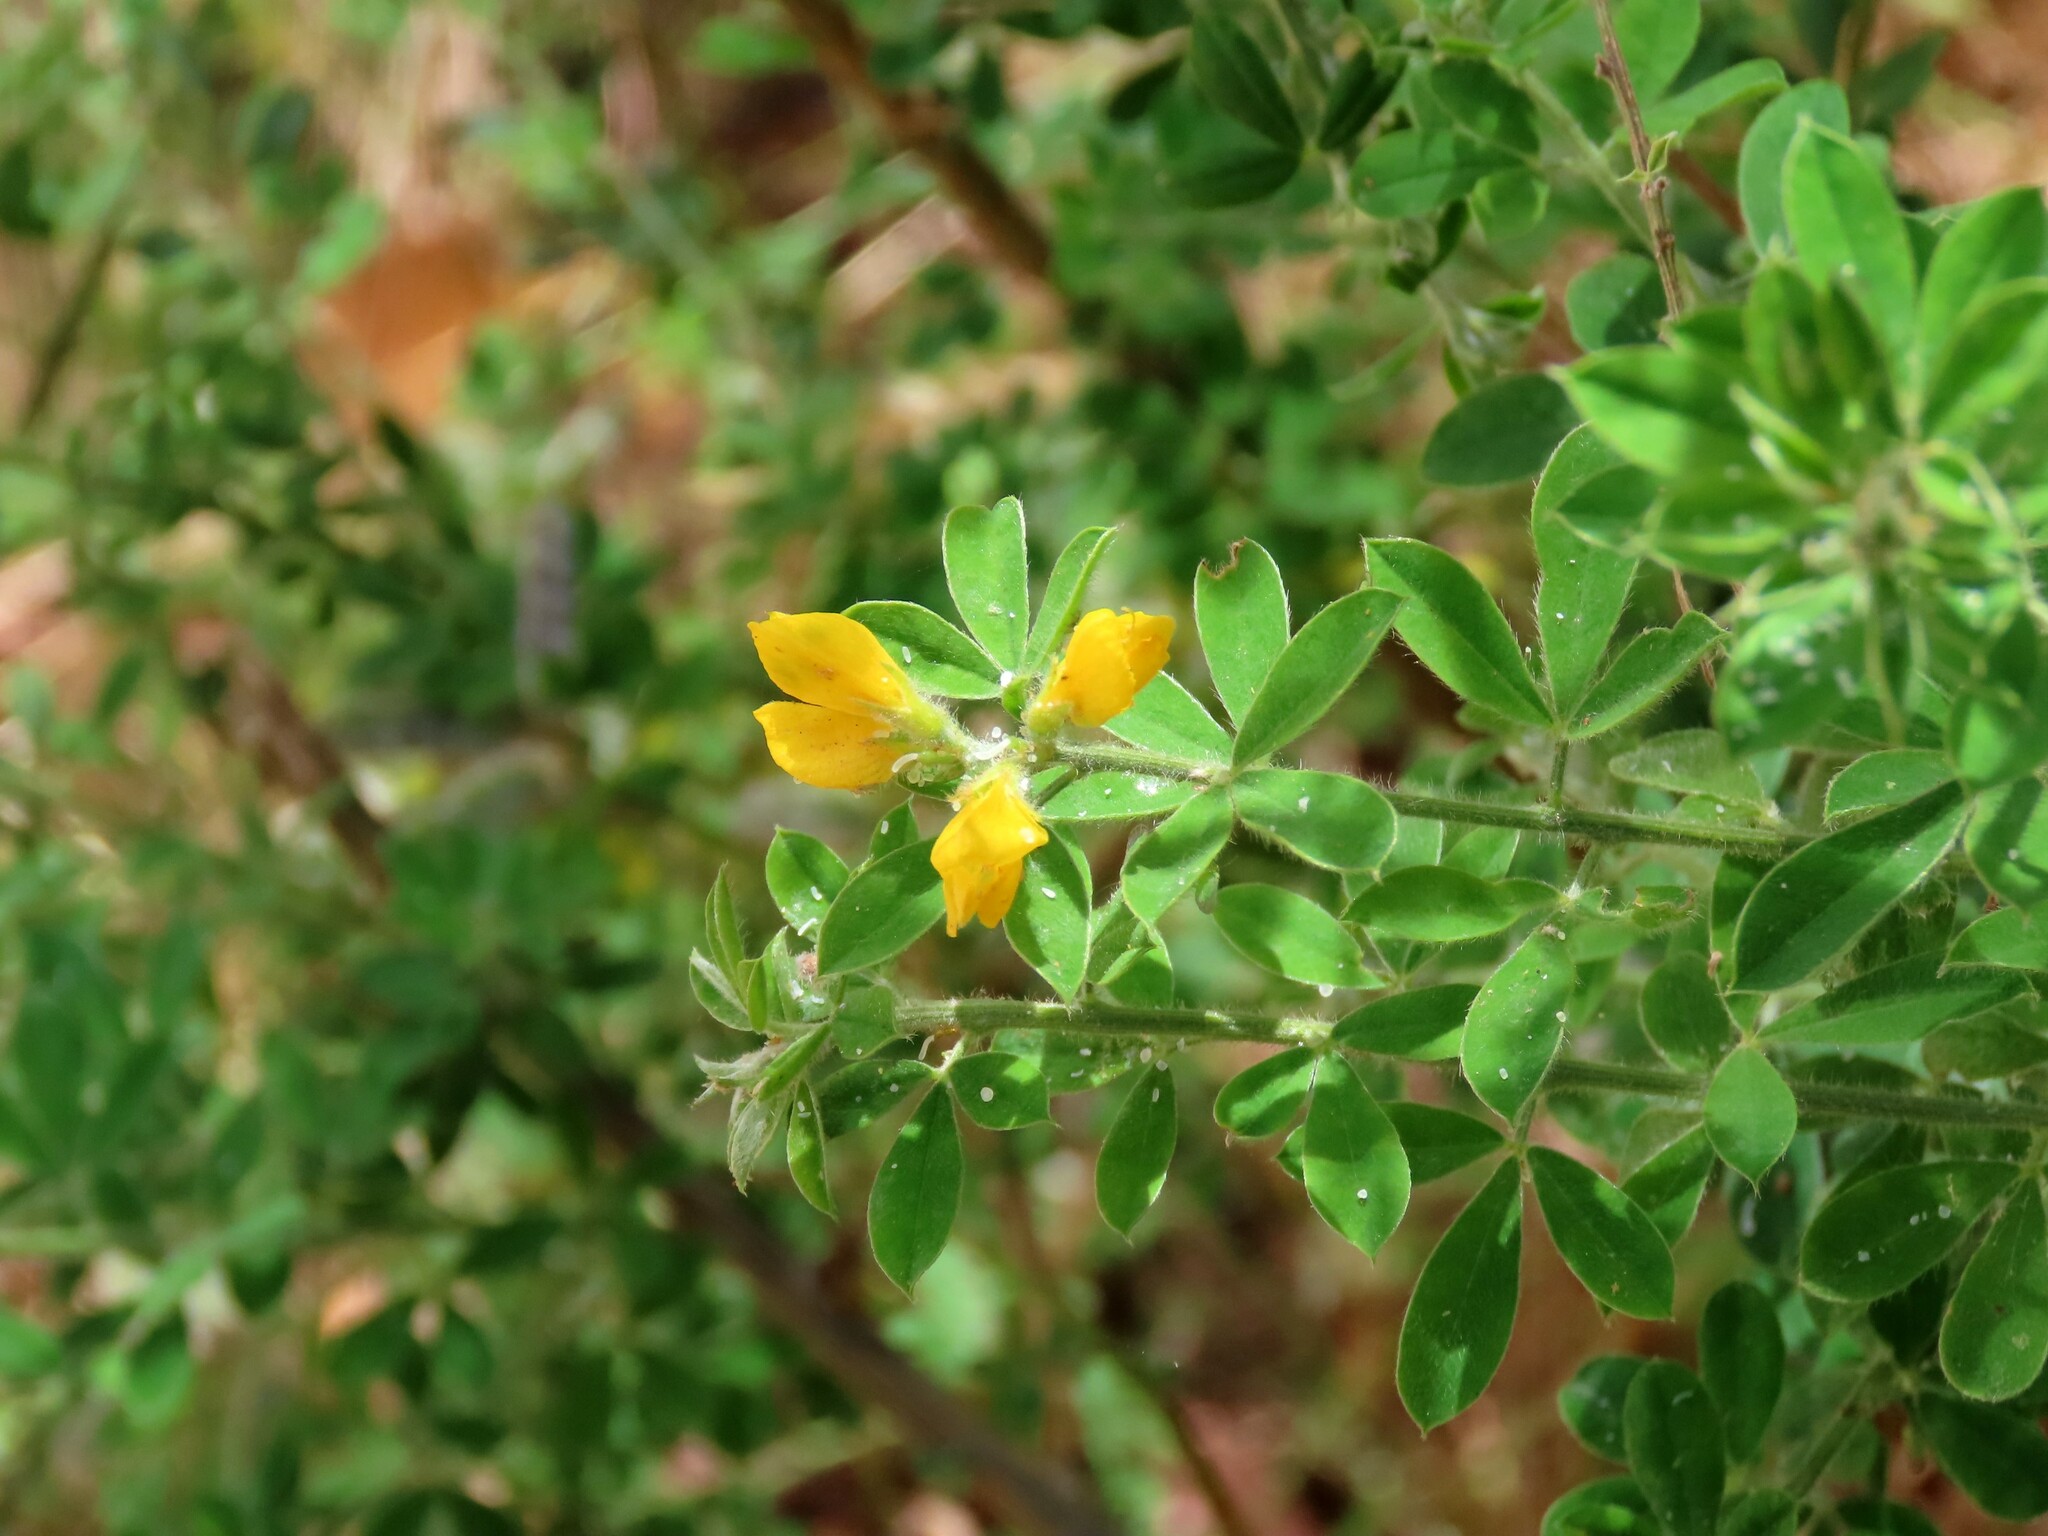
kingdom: Plantae
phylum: Tracheophyta
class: Magnoliopsida
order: Fabales
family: Fabaceae
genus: Genista
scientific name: Genista monspessulana
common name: Montpellier broom
